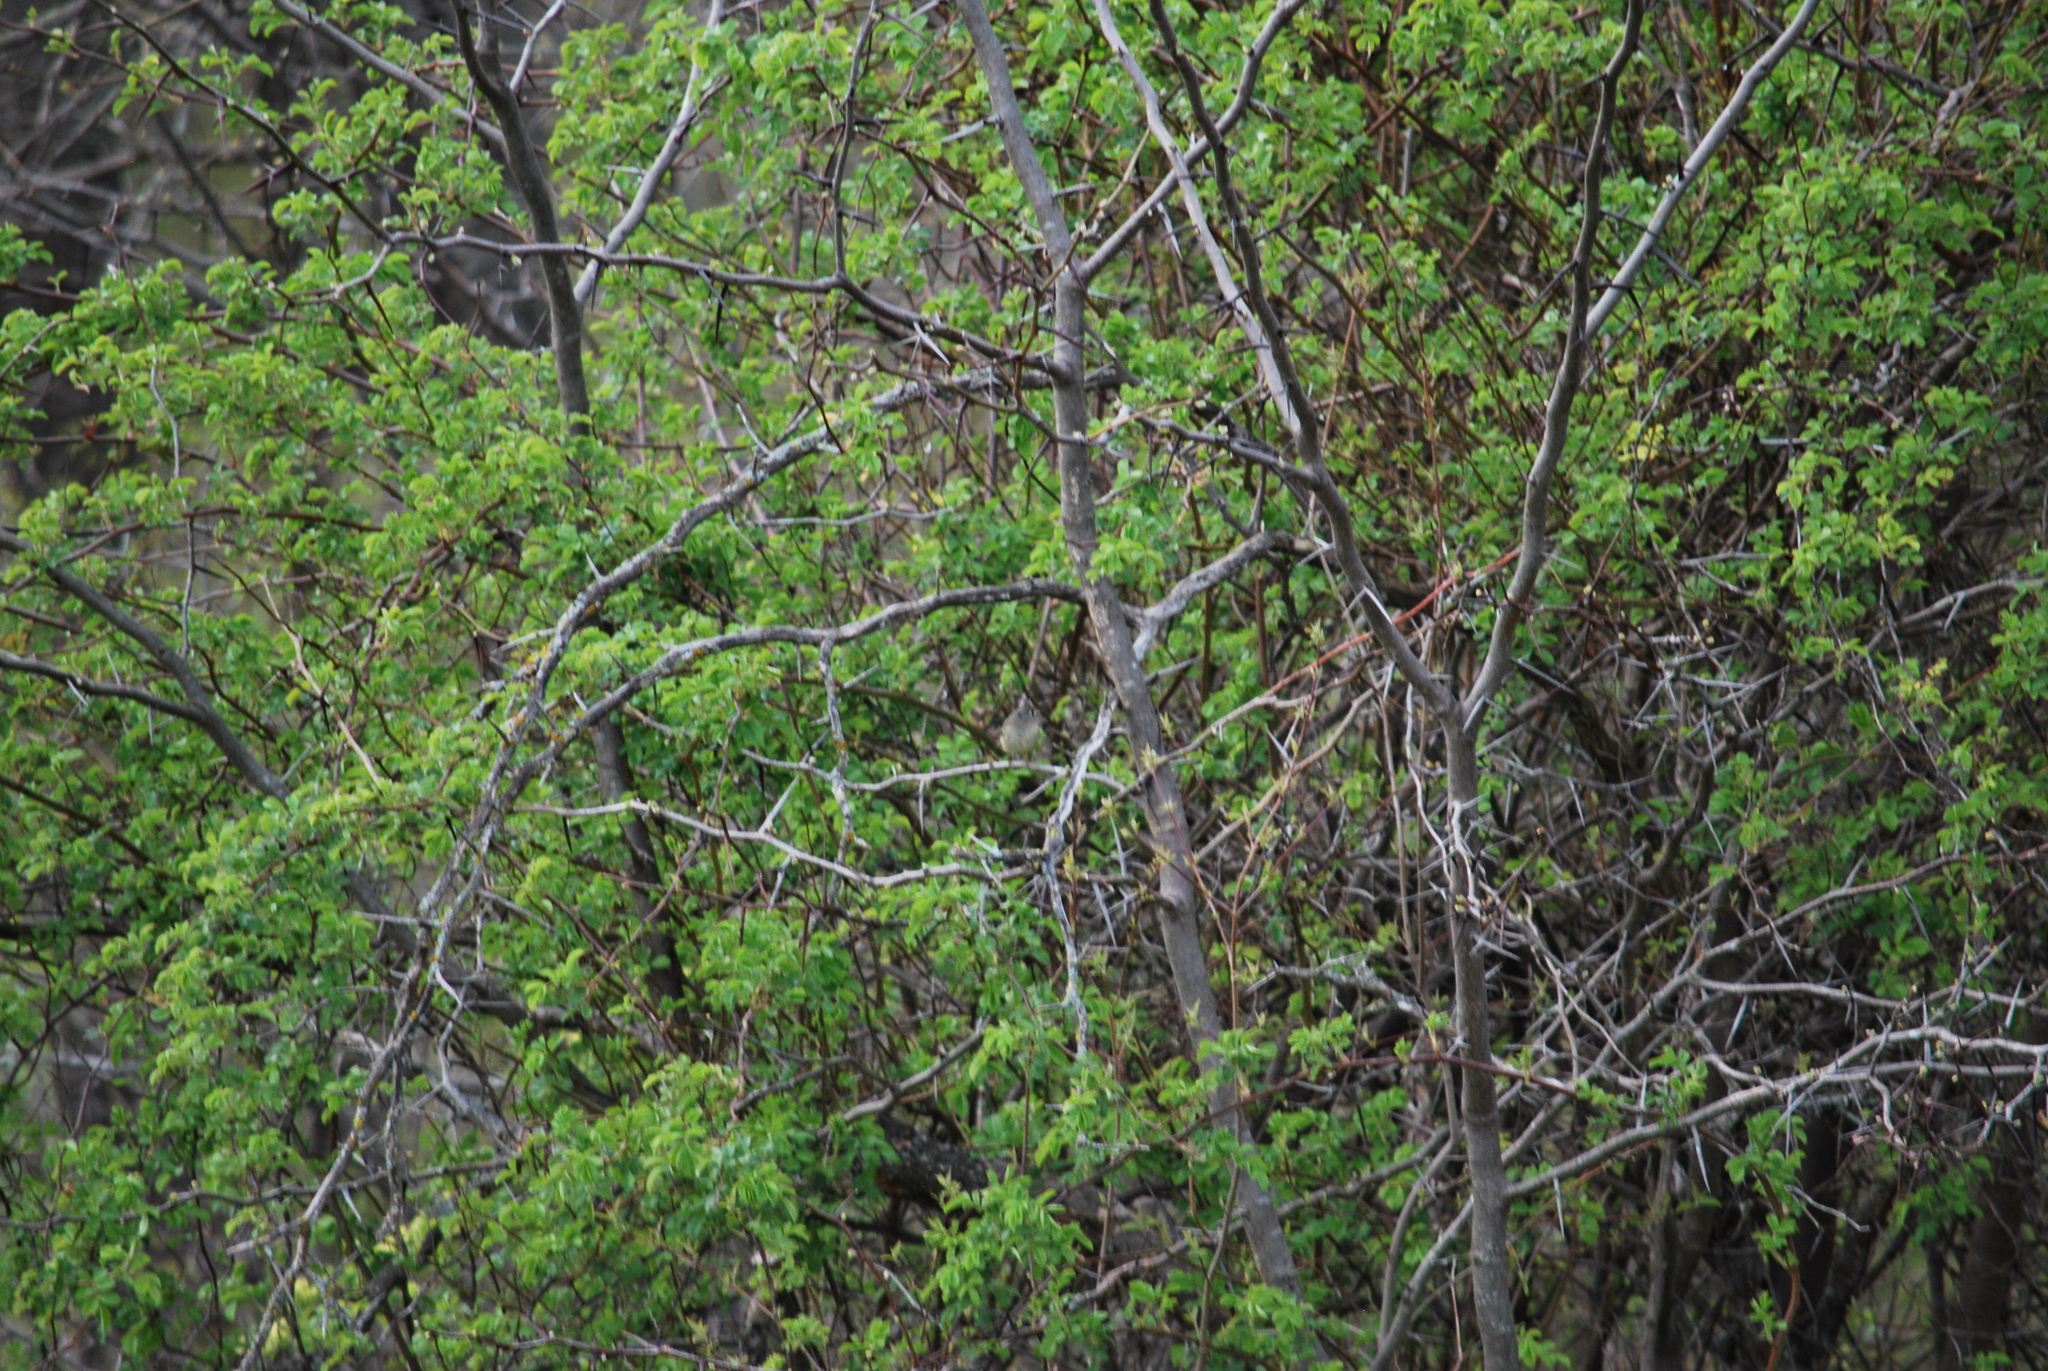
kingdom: Animalia
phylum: Chordata
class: Aves
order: Passeriformes
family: Regulidae
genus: Regulus
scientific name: Regulus calendula
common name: Ruby-crowned kinglet
